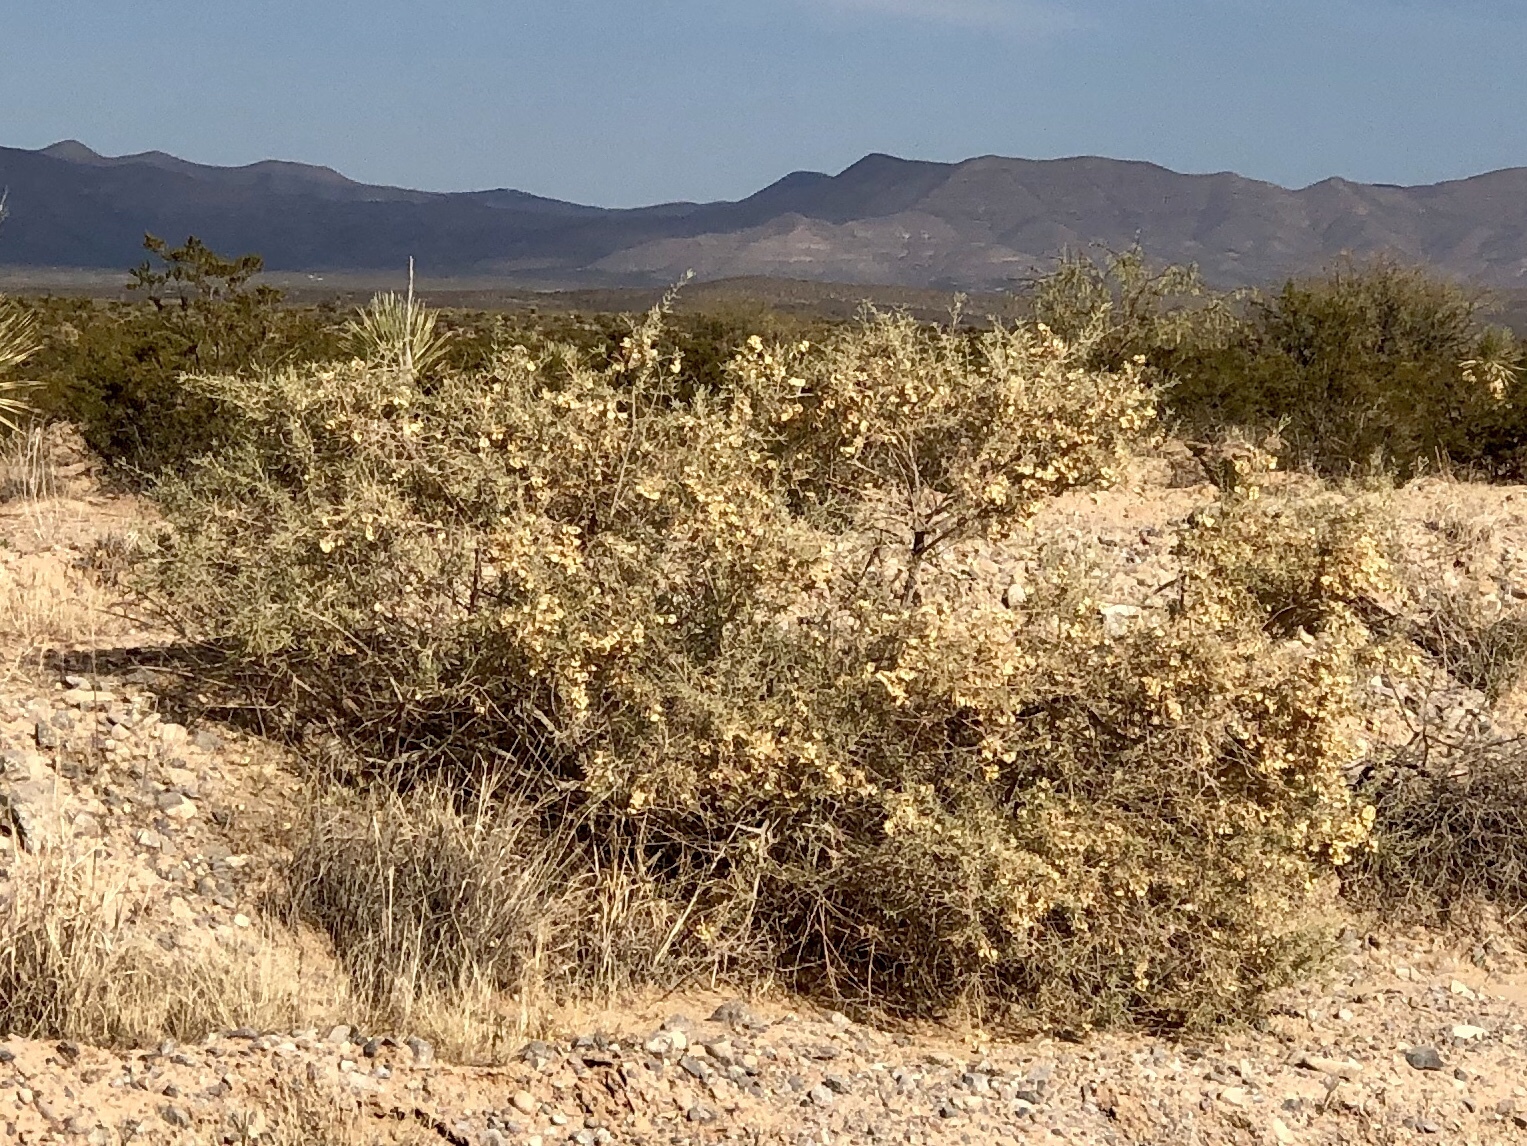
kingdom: Plantae
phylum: Tracheophyta
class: Magnoliopsida
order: Caryophyllales
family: Amaranthaceae
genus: Atriplex
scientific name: Atriplex canescens
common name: Four-wing saltbush
